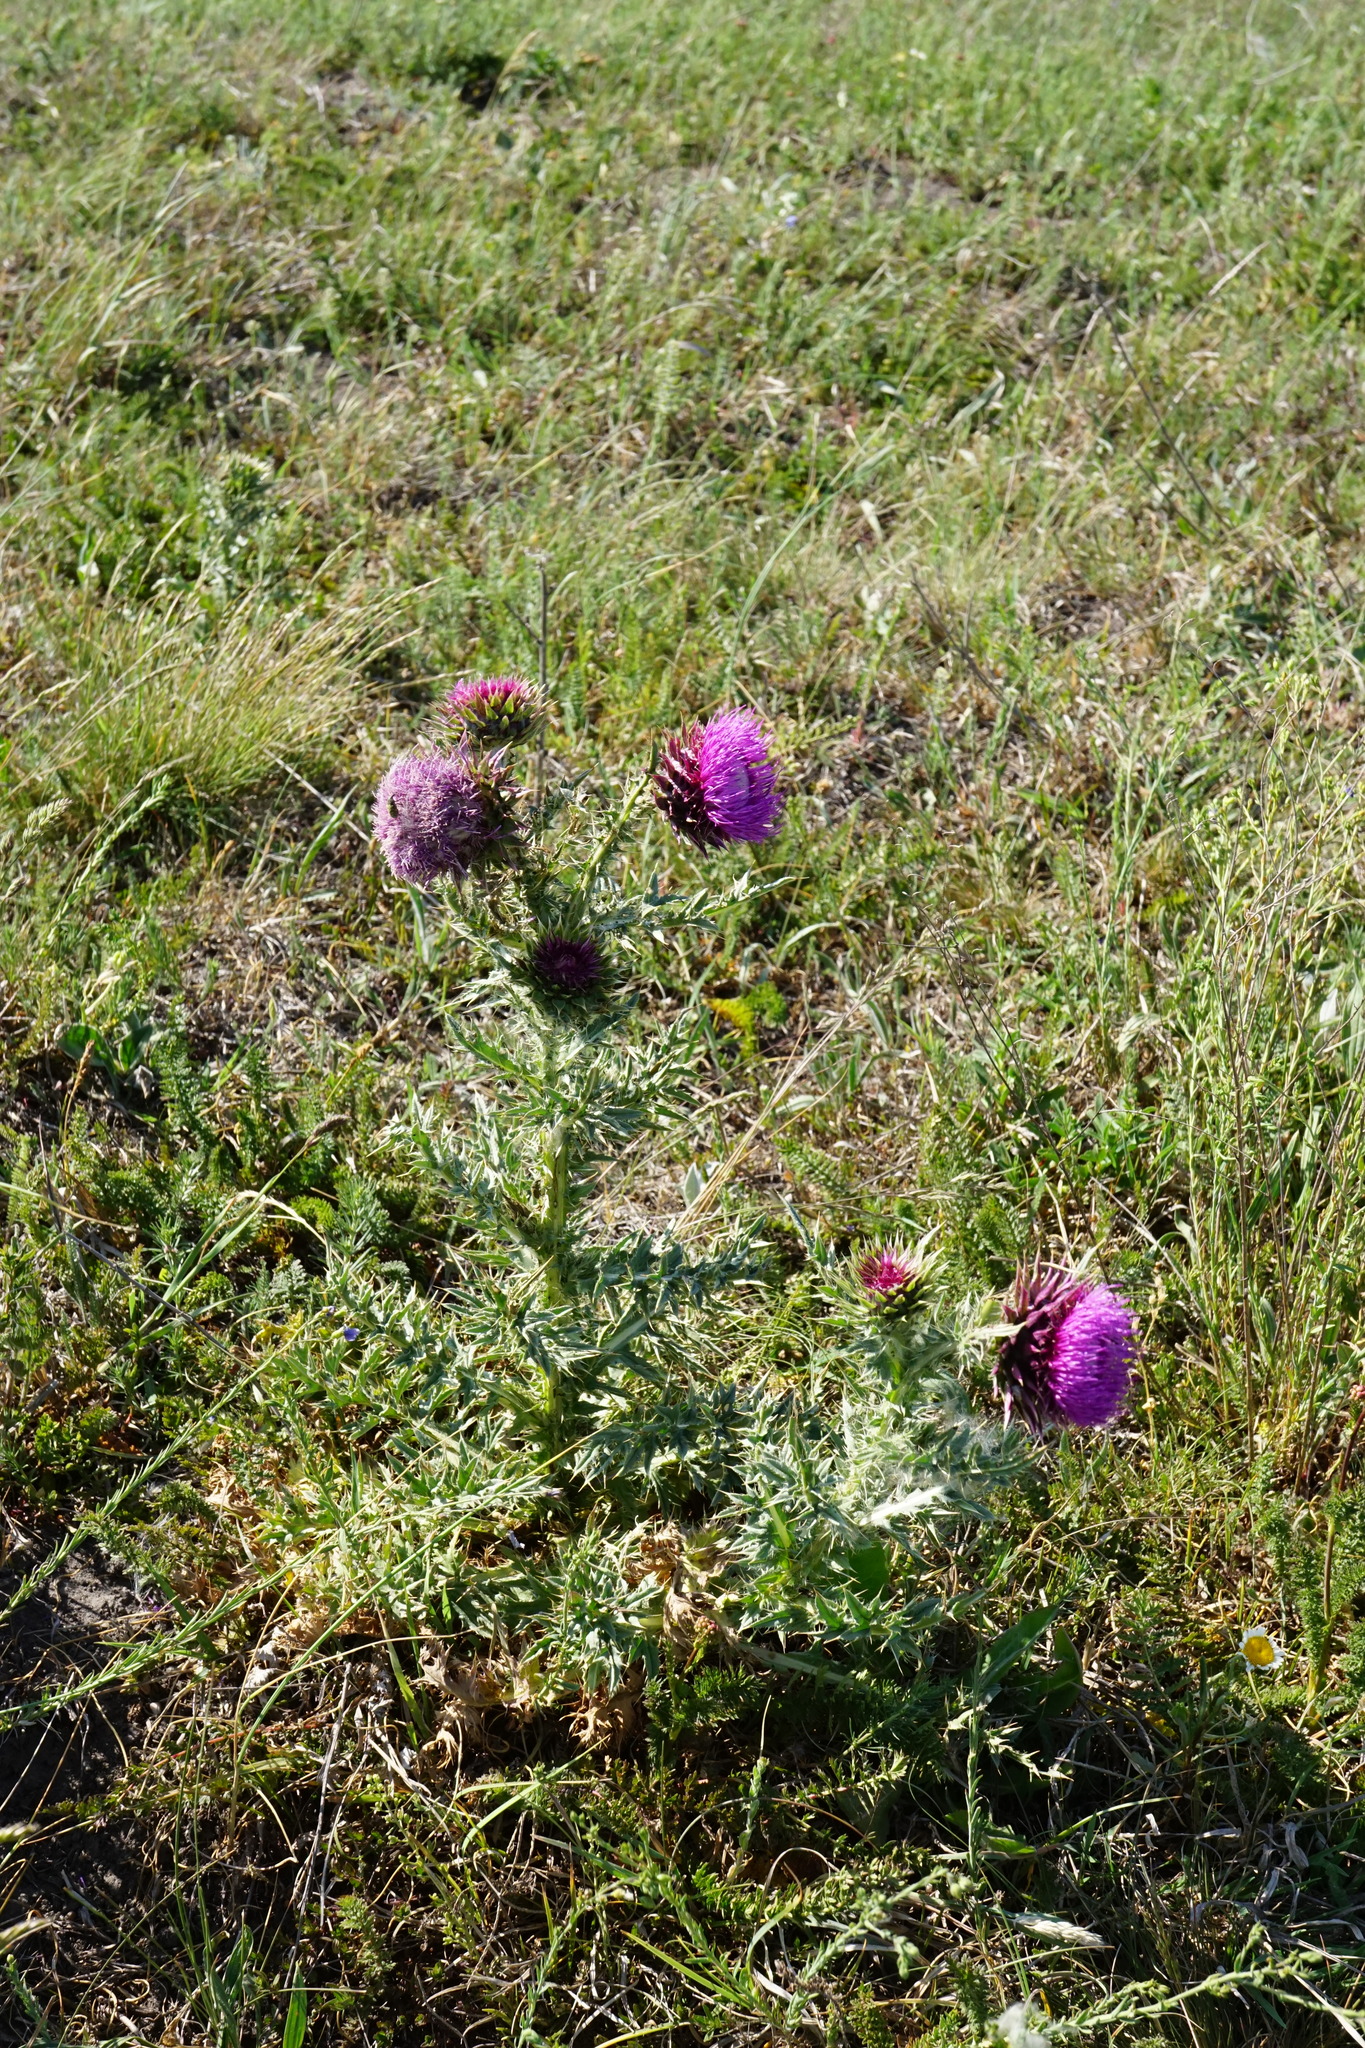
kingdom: Plantae
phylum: Tracheophyta
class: Magnoliopsida
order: Asterales
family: Asteraceae
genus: Carduus
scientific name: Carduus nutans
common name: Musk thistle
